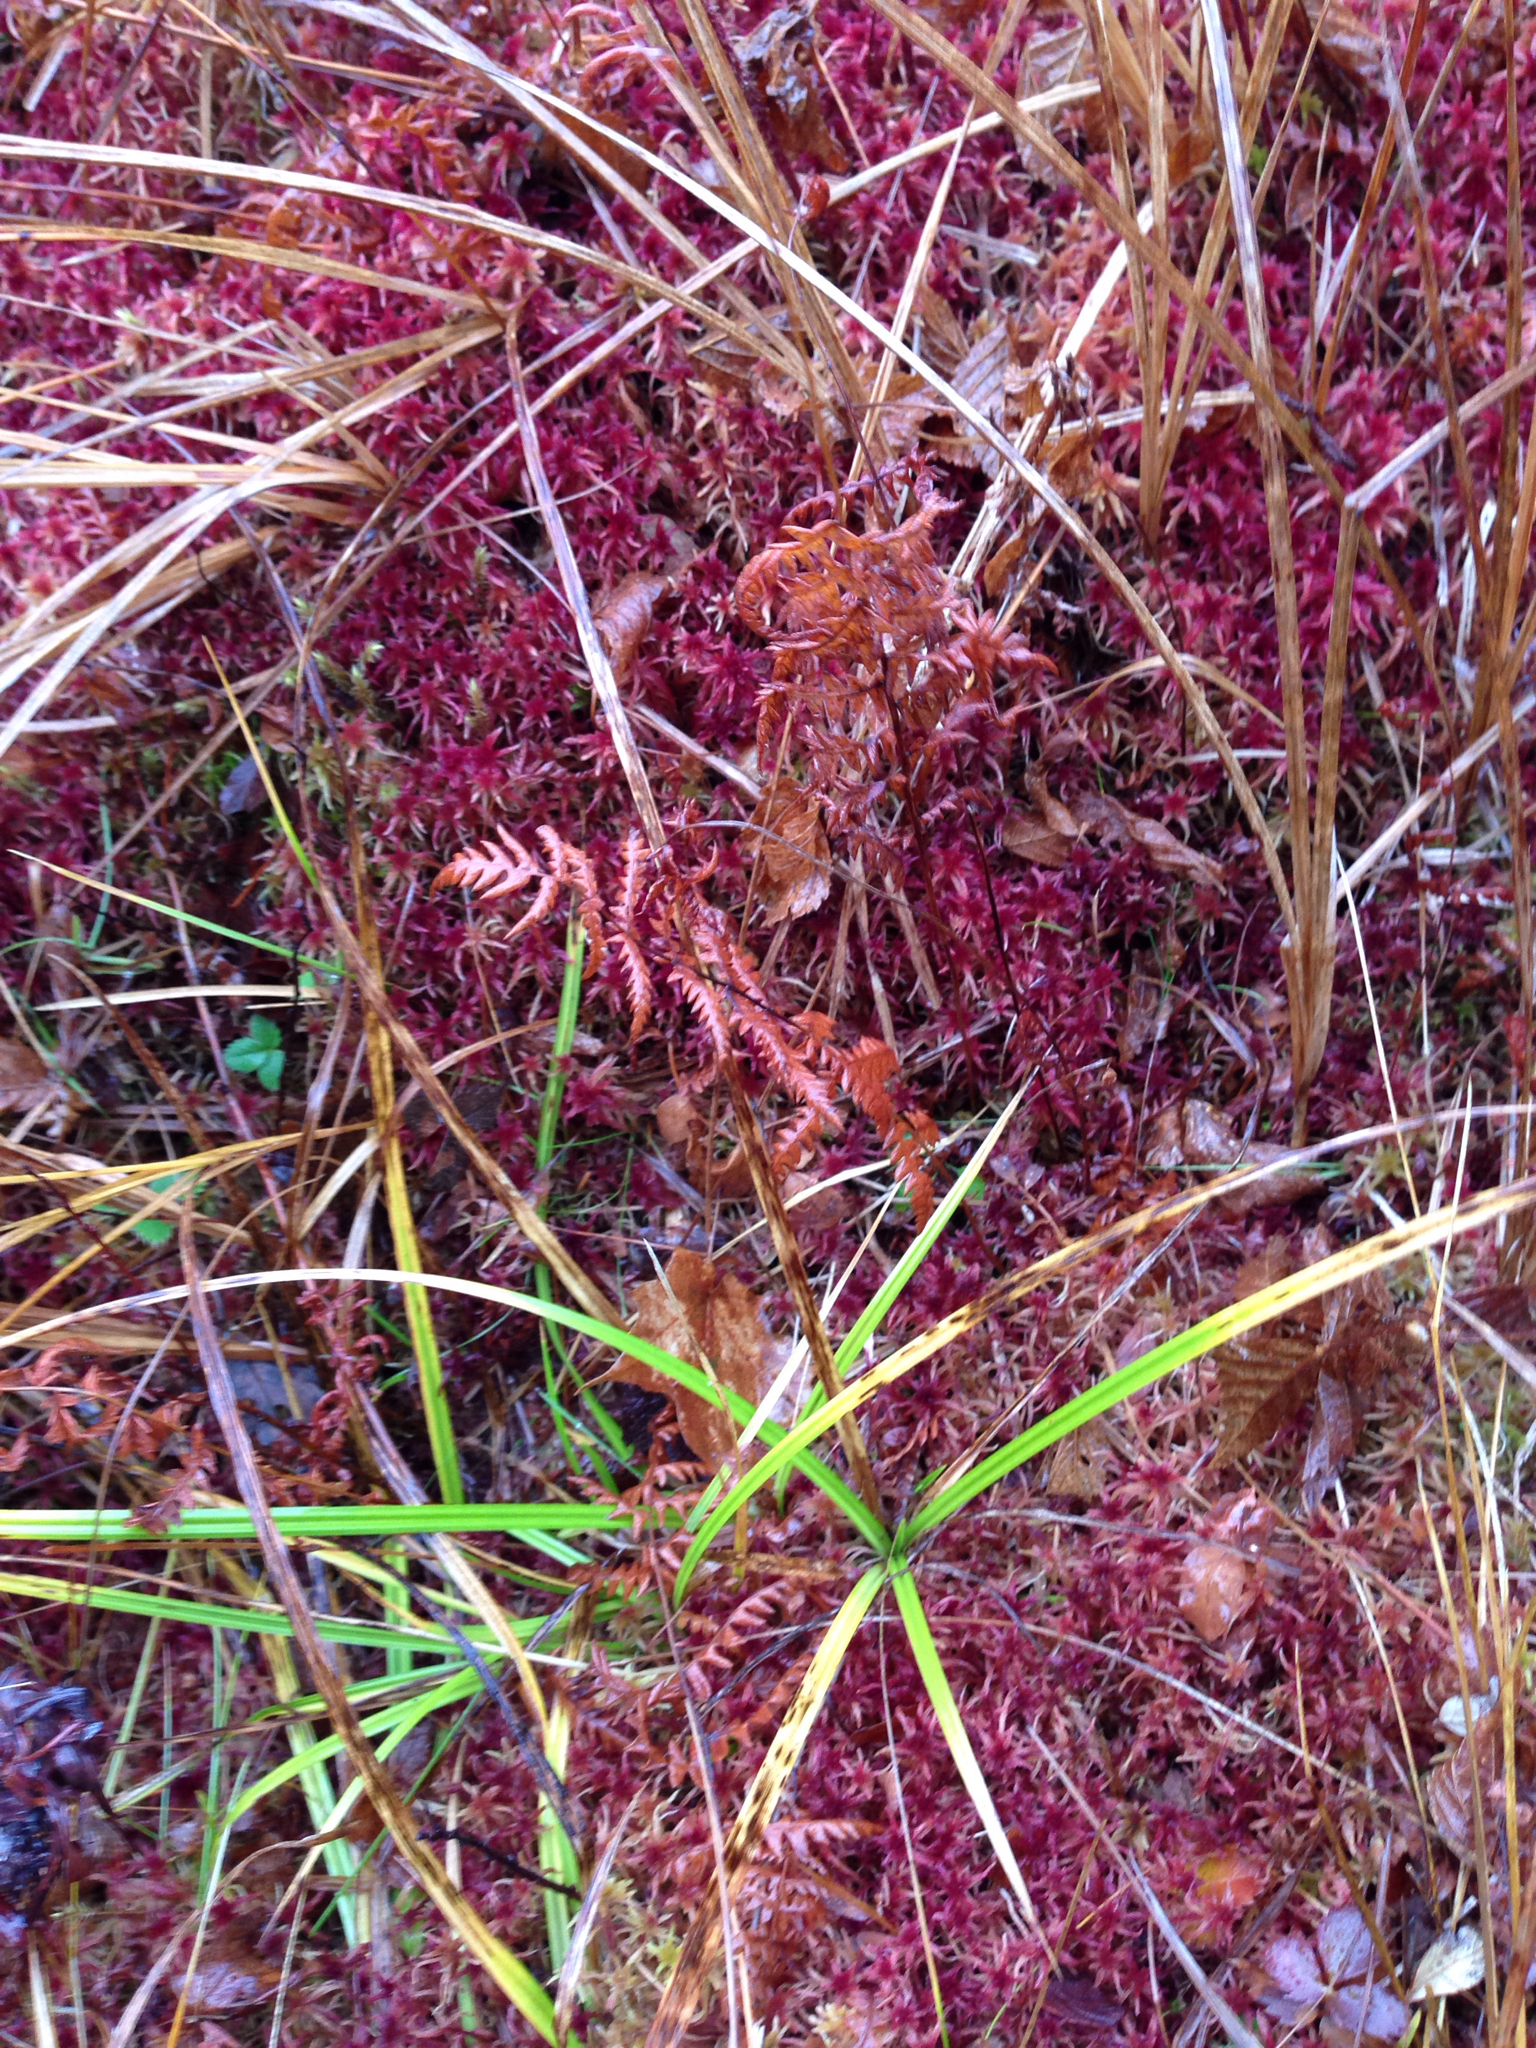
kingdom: Plantae
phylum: Tracheophyta
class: Polypodiopsida
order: Polypodiales
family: Thelypteridaceae
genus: Thelypteris
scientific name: Thelypteris palustris
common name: Marsh fern
